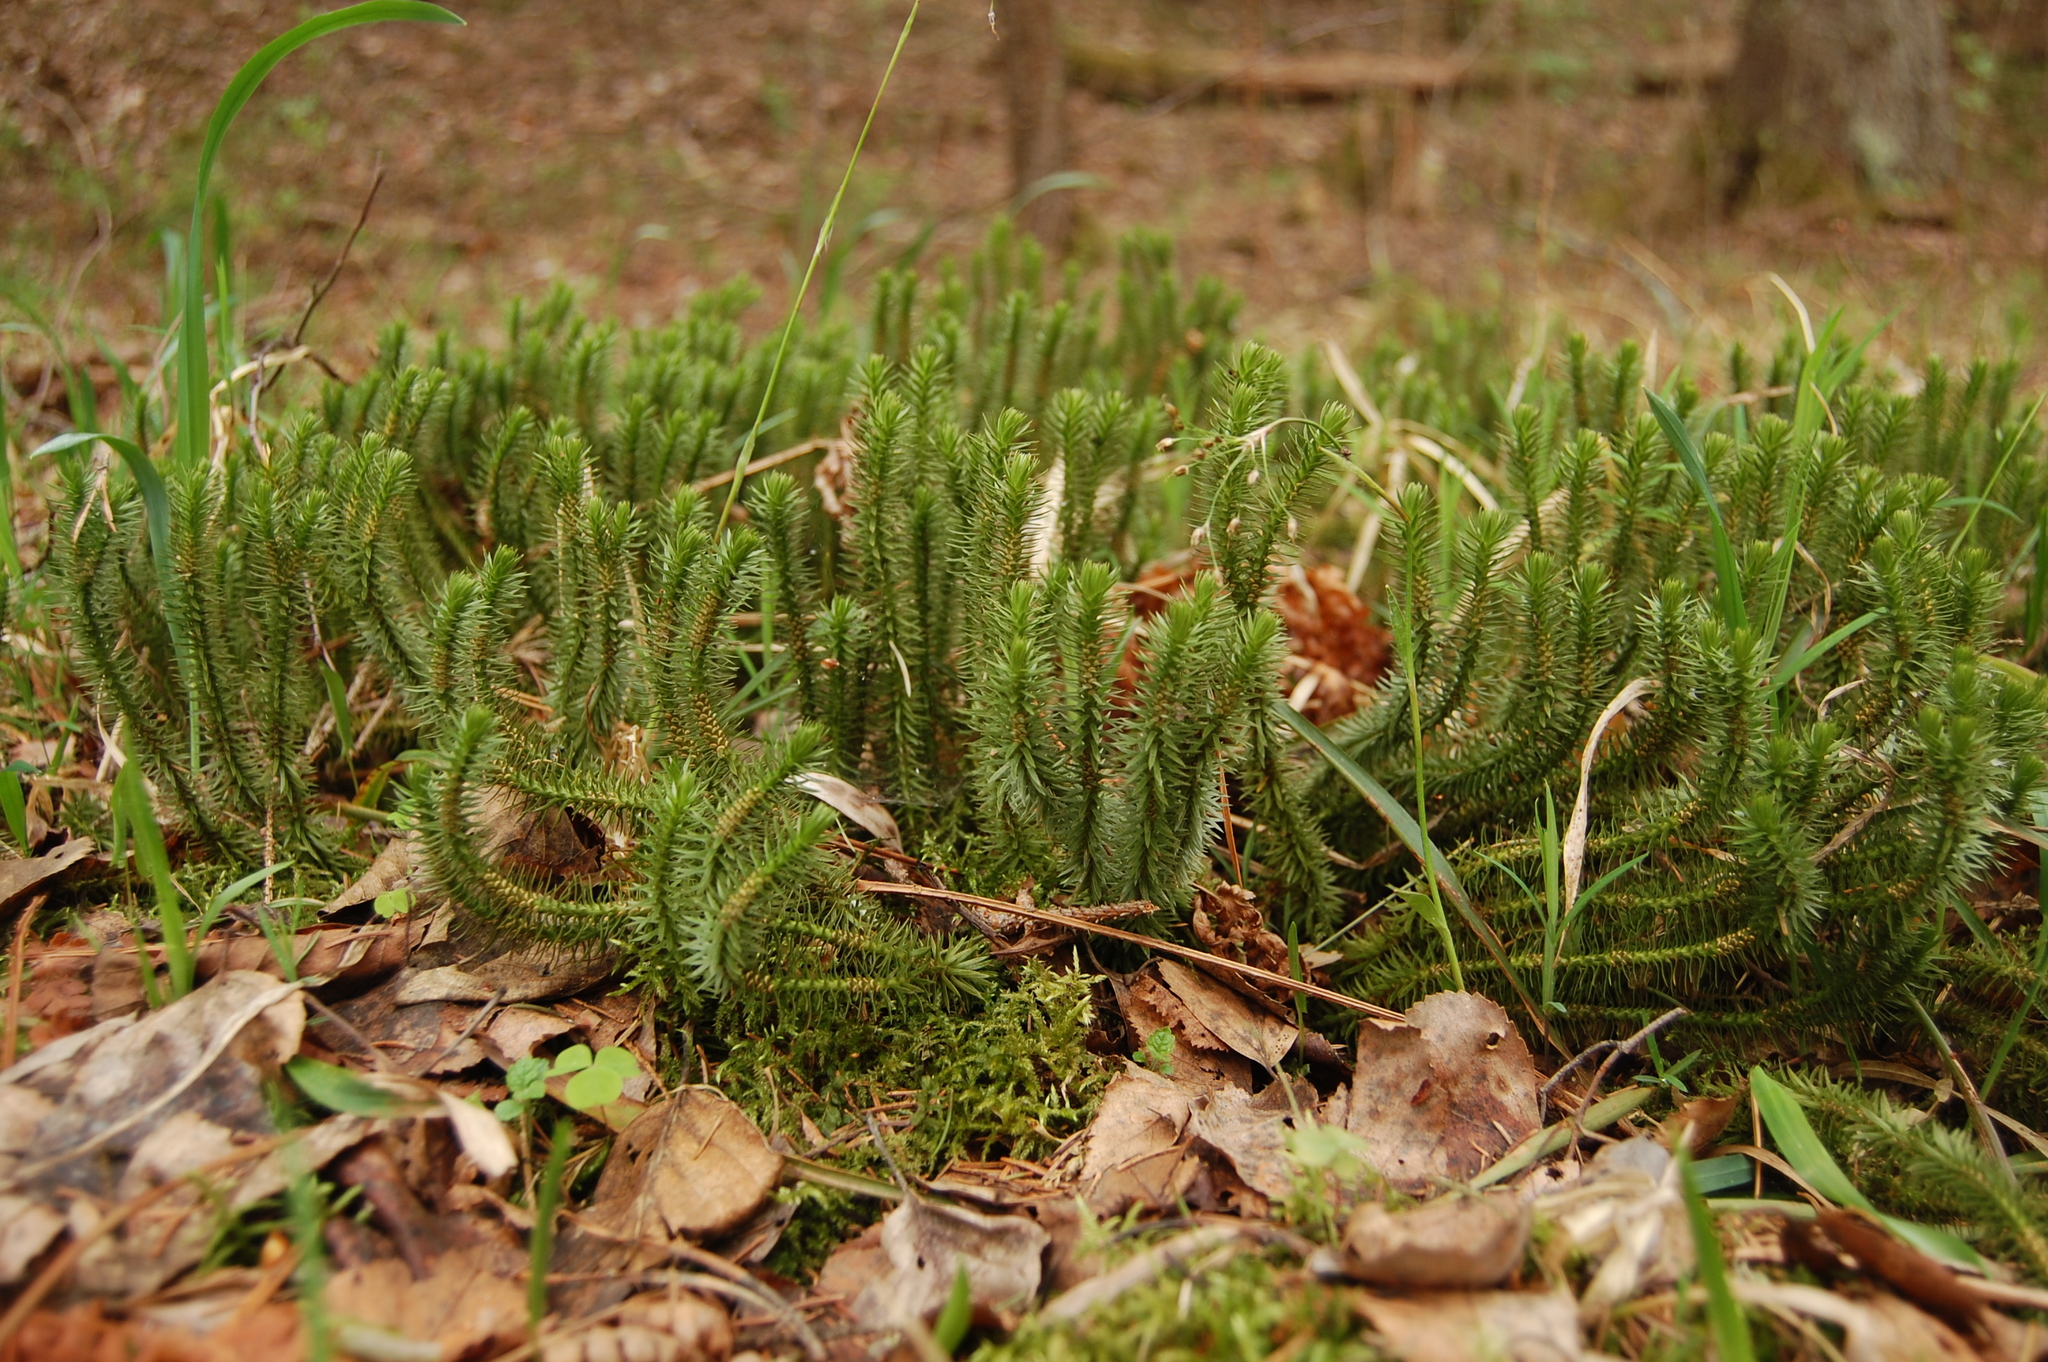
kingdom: Plantae
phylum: Tracheophyta
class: Lycopodiopsida
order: Lycopodiales
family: Lycopodiaceae
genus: Huperzia
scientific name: Huperzia selago
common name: Northern firmoss
